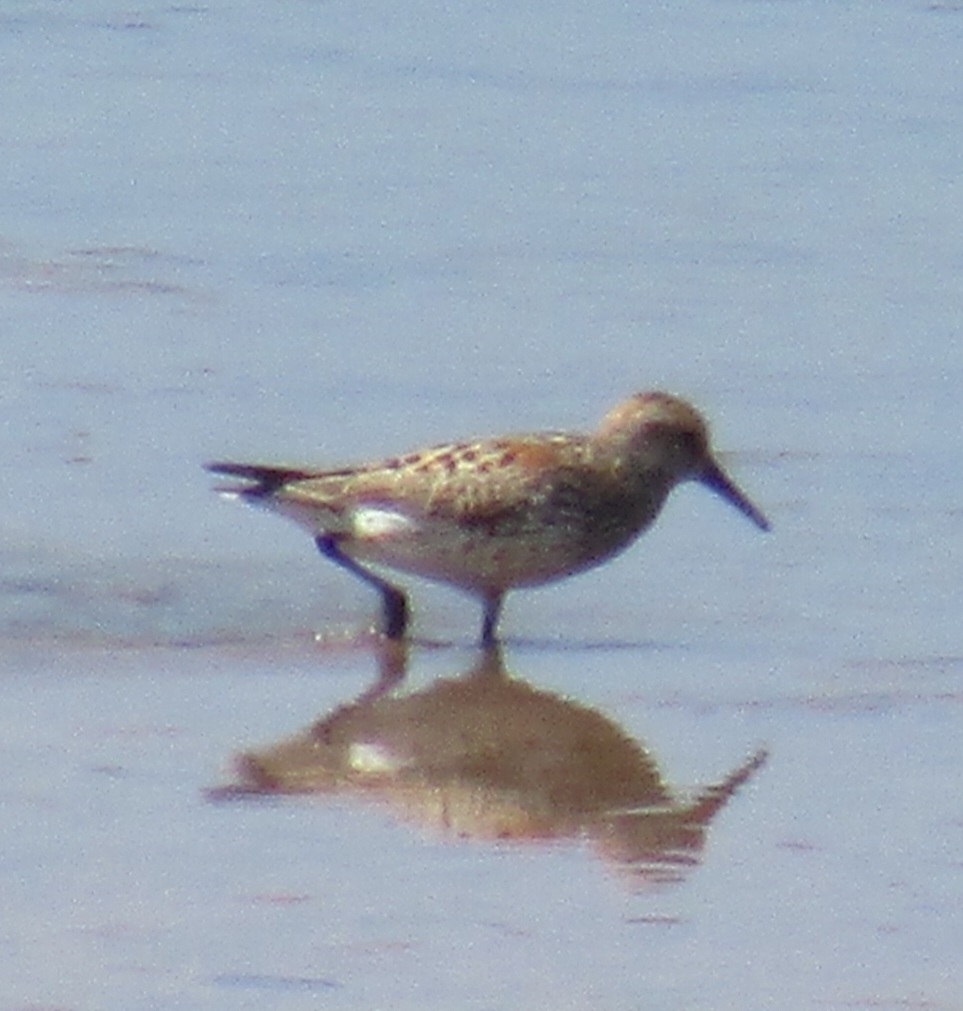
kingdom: Animalia
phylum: Chordata
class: Aves
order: Charadriiformes
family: Scolopacidae
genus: Calidris
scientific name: Calidris mauri
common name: Western sandpiper
